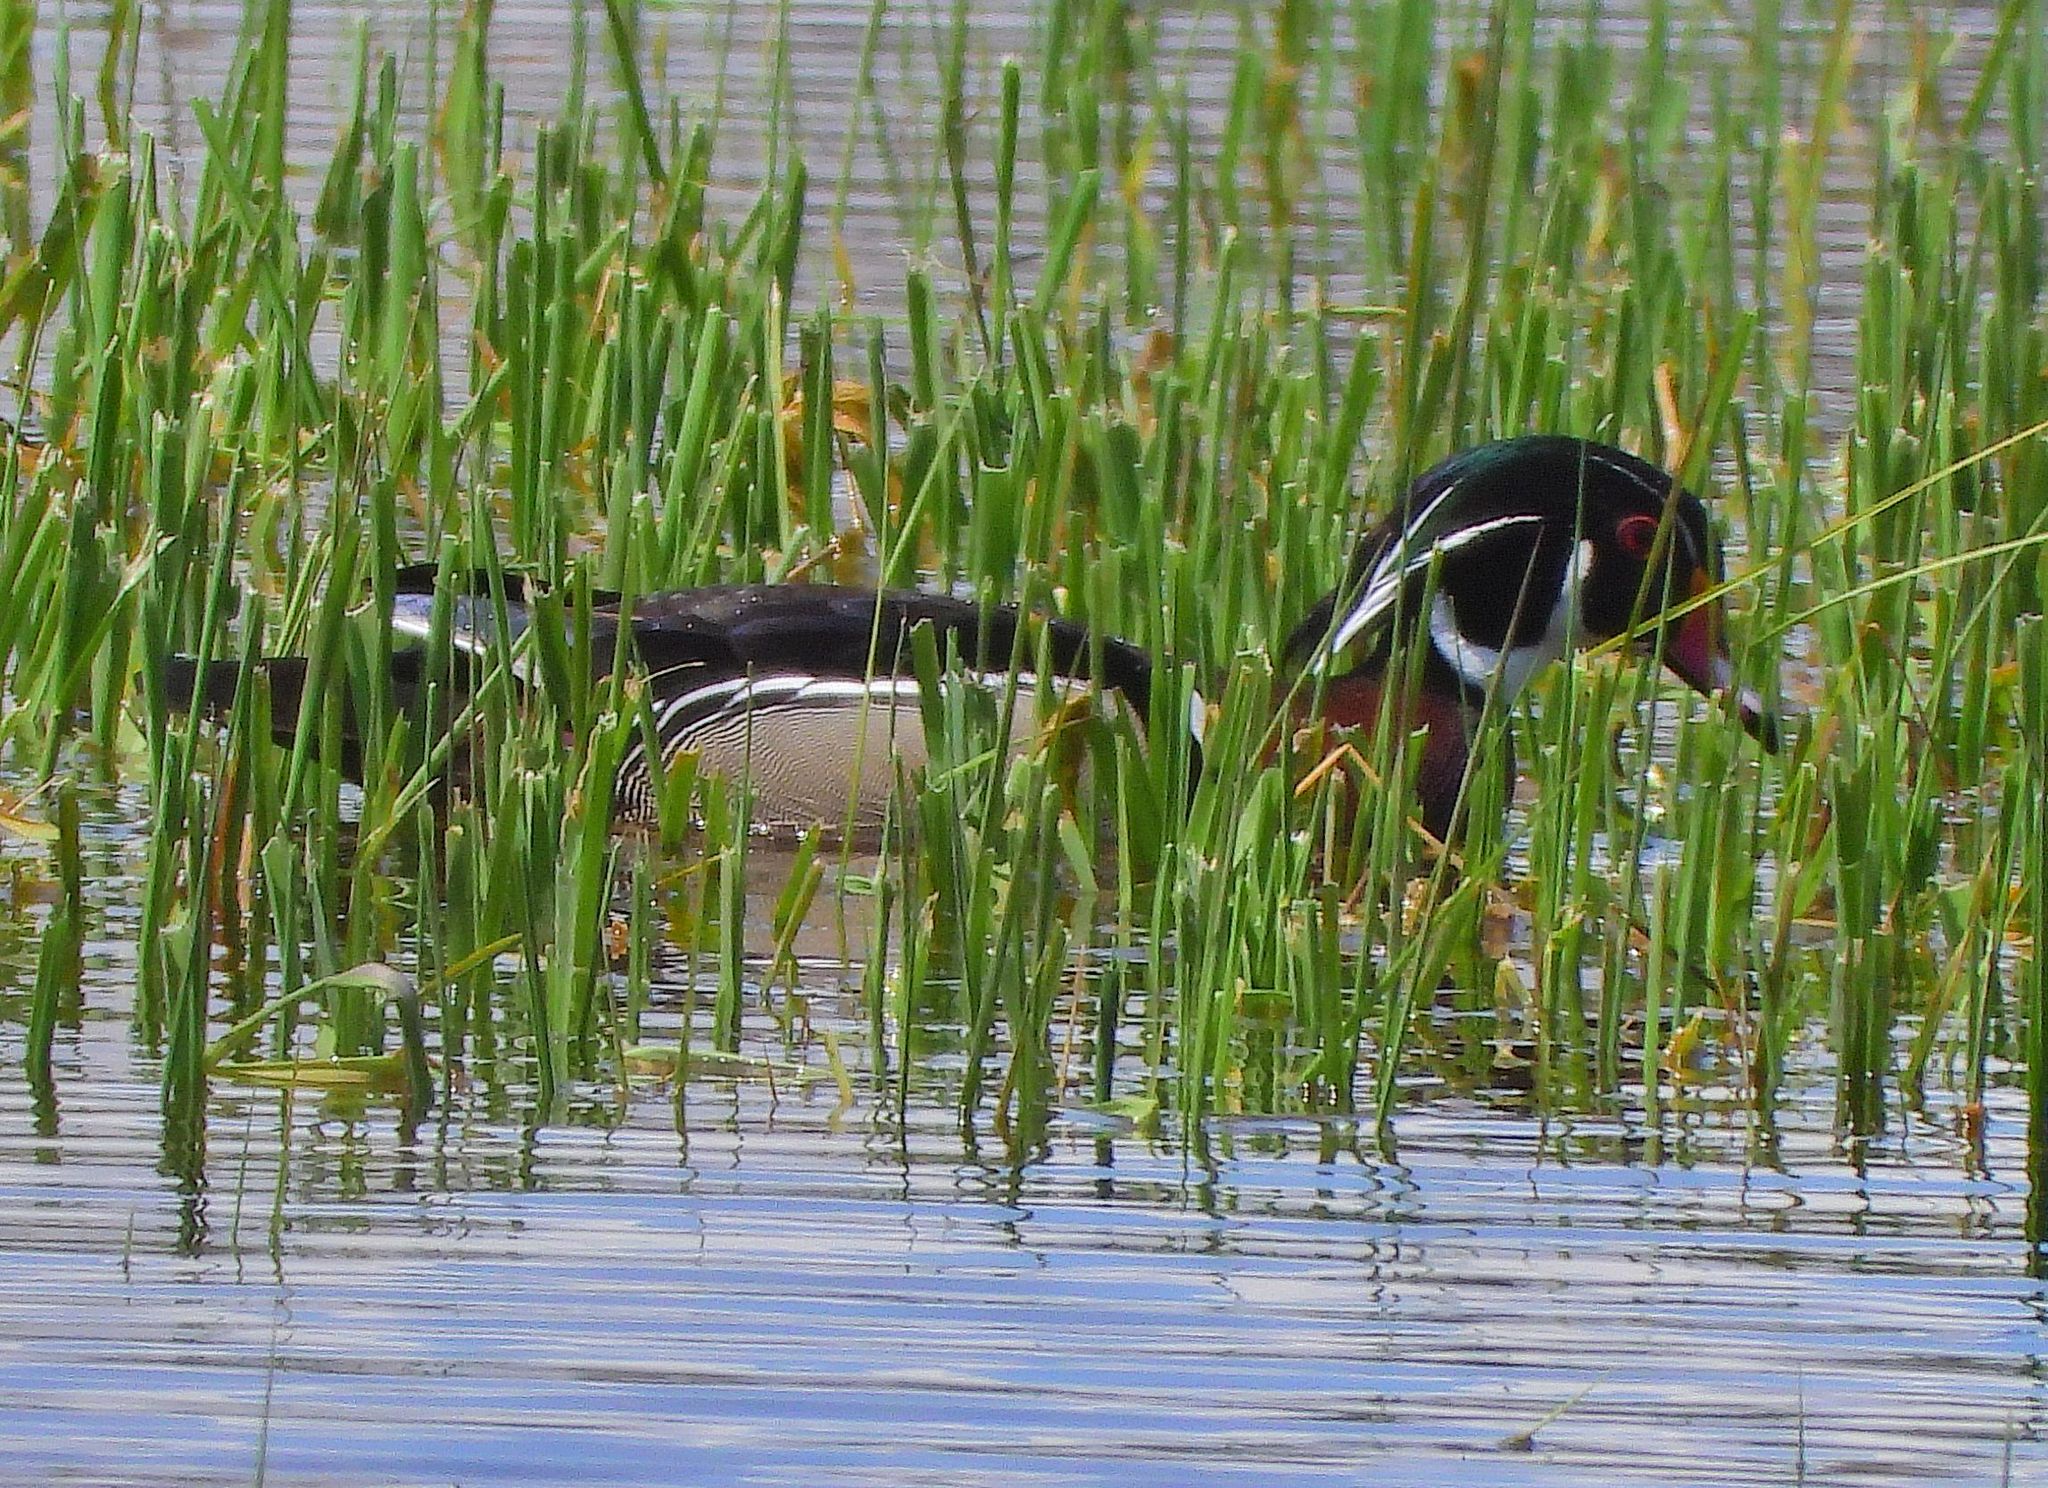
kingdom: Animalia
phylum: Chordata
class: Aves
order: Anseriformes
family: Anatidae
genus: Aix
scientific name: Aix sponsa
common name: Wood duck
